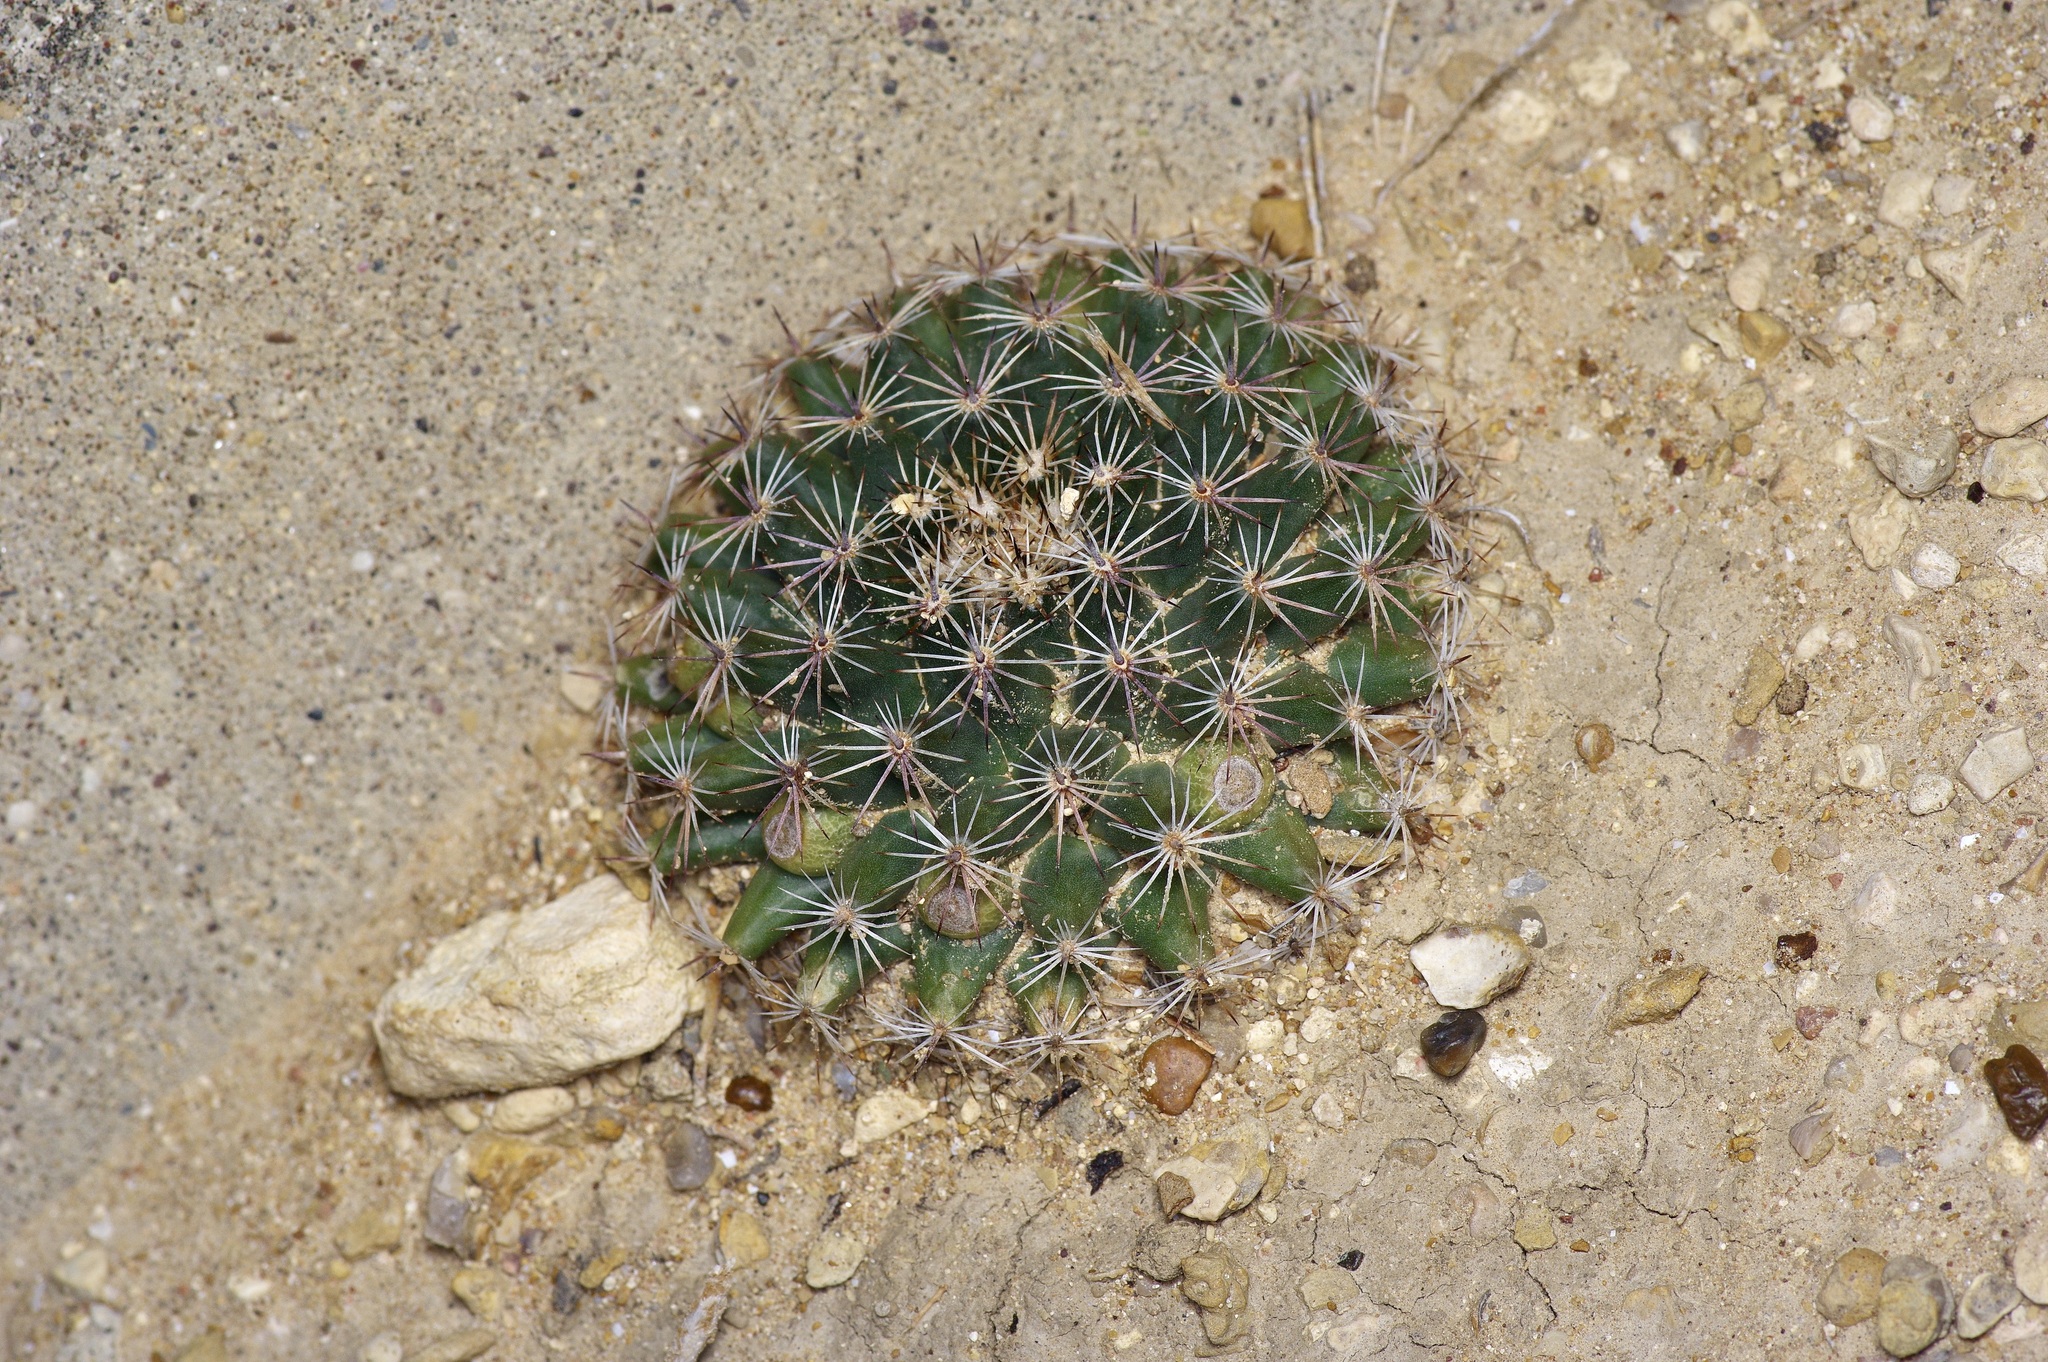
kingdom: Plantae
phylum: Tracheophyta
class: Magnoliopsida
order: Caryophyllales
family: Cactaceae
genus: Mammillaria
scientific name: Mammillaria heyderi
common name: Little nipple cactus
